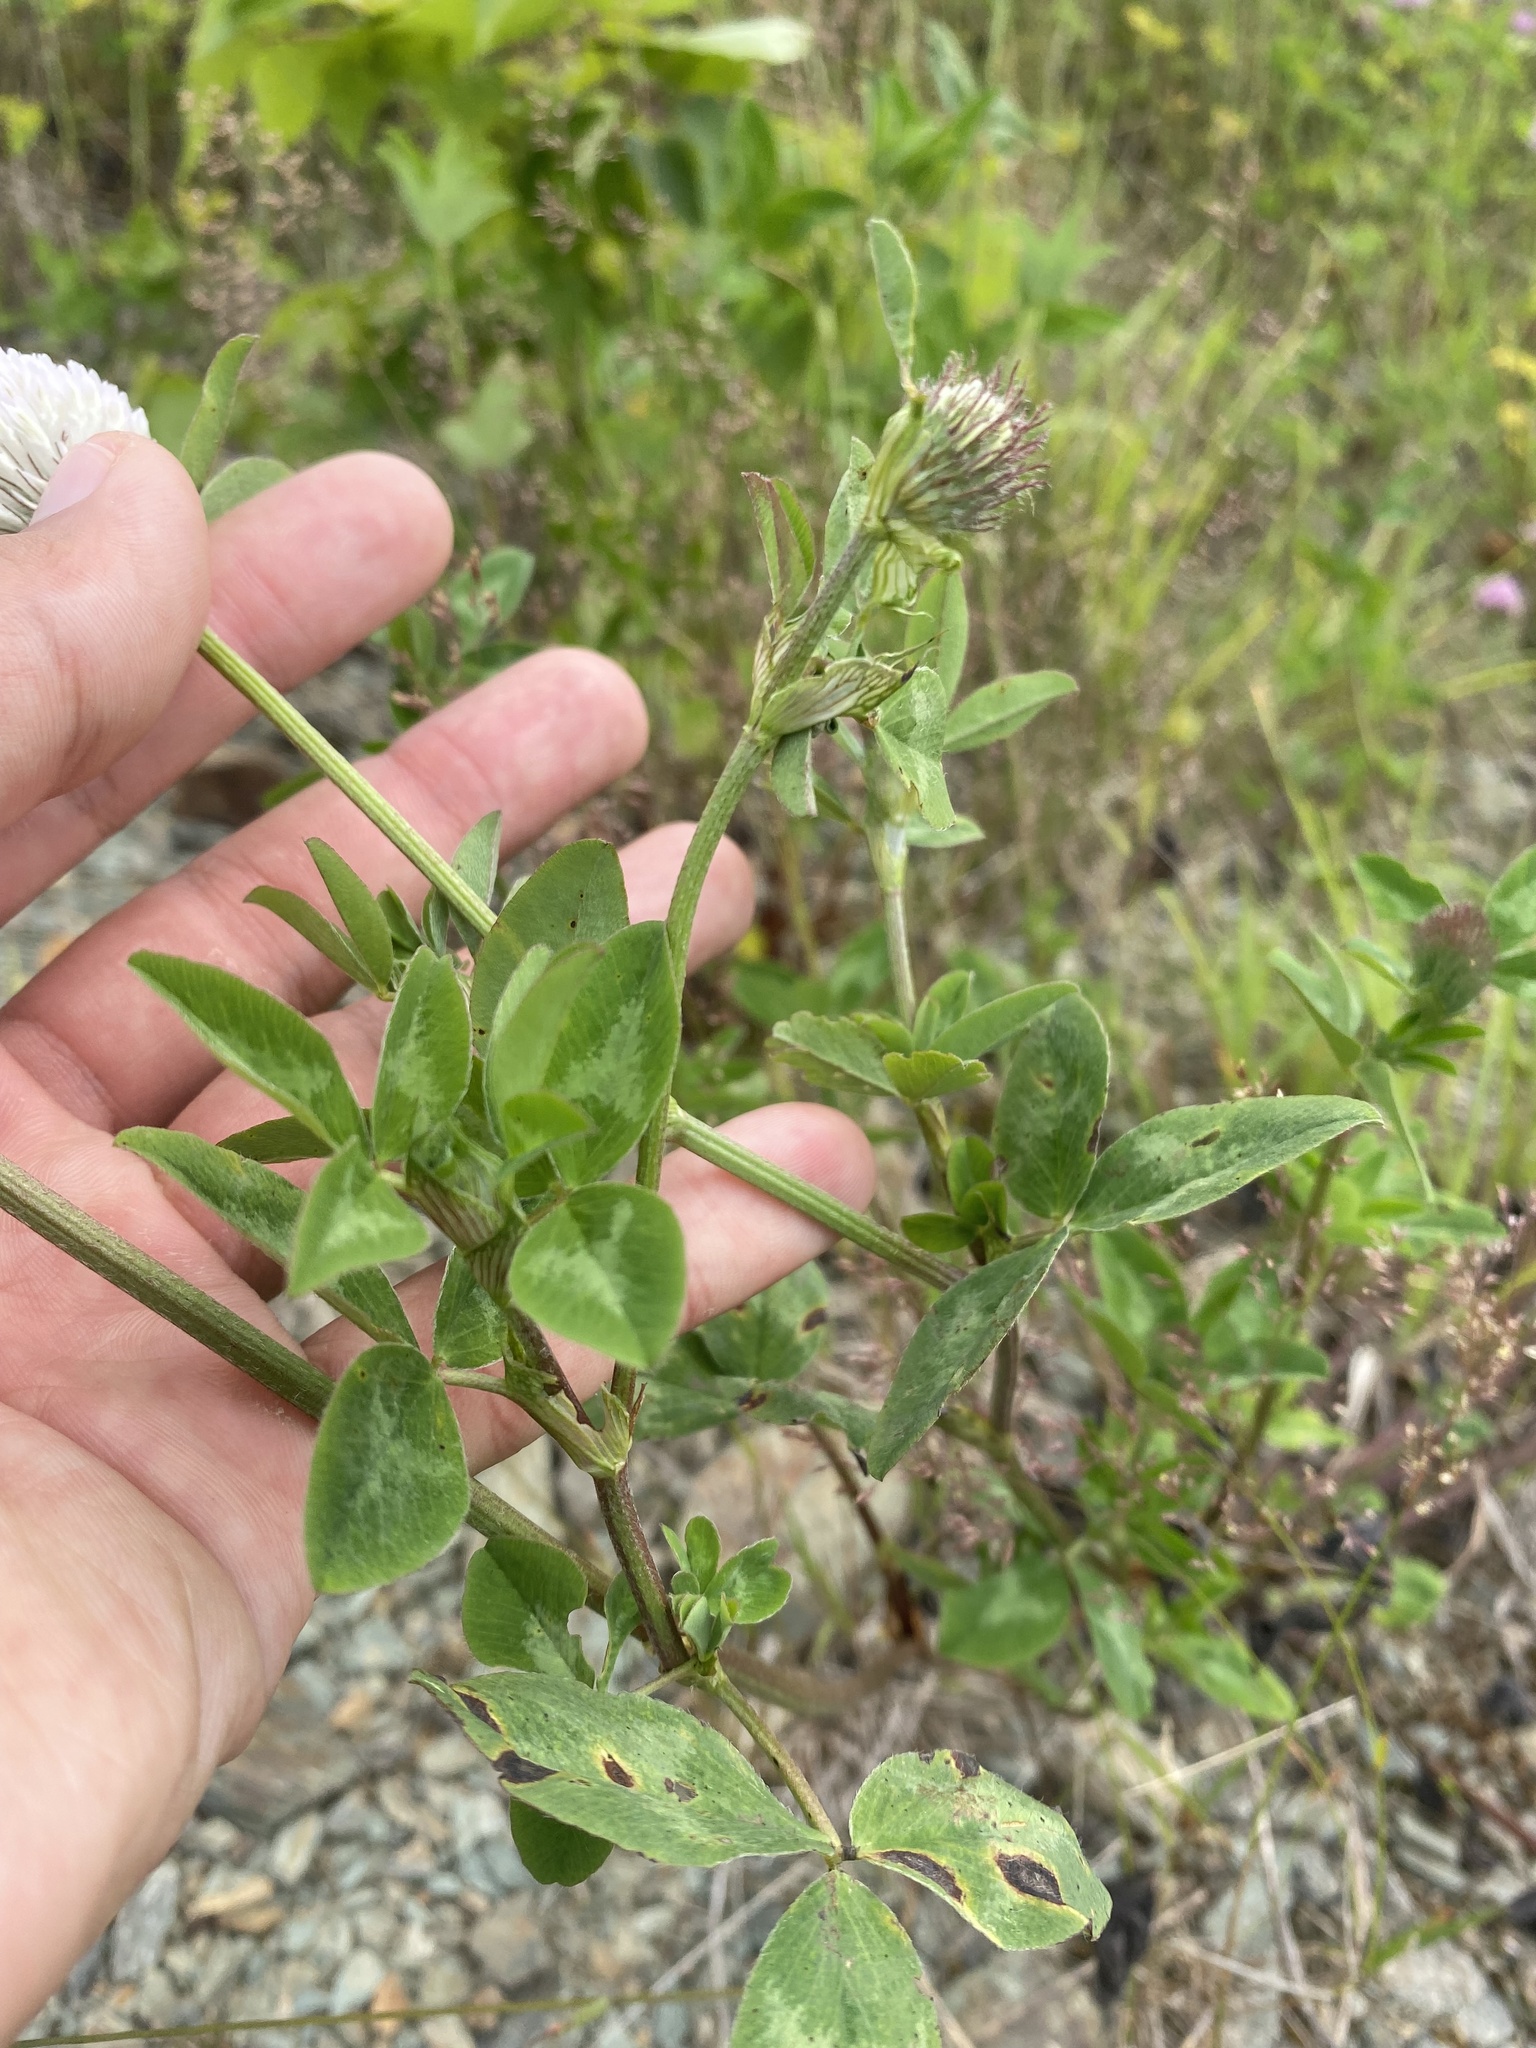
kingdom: Plantae
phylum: Tracheophyta
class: Magnoliopsida
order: Fabales
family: Fabaceae
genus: Trifolium
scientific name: Trifolium pratense
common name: Red clover
